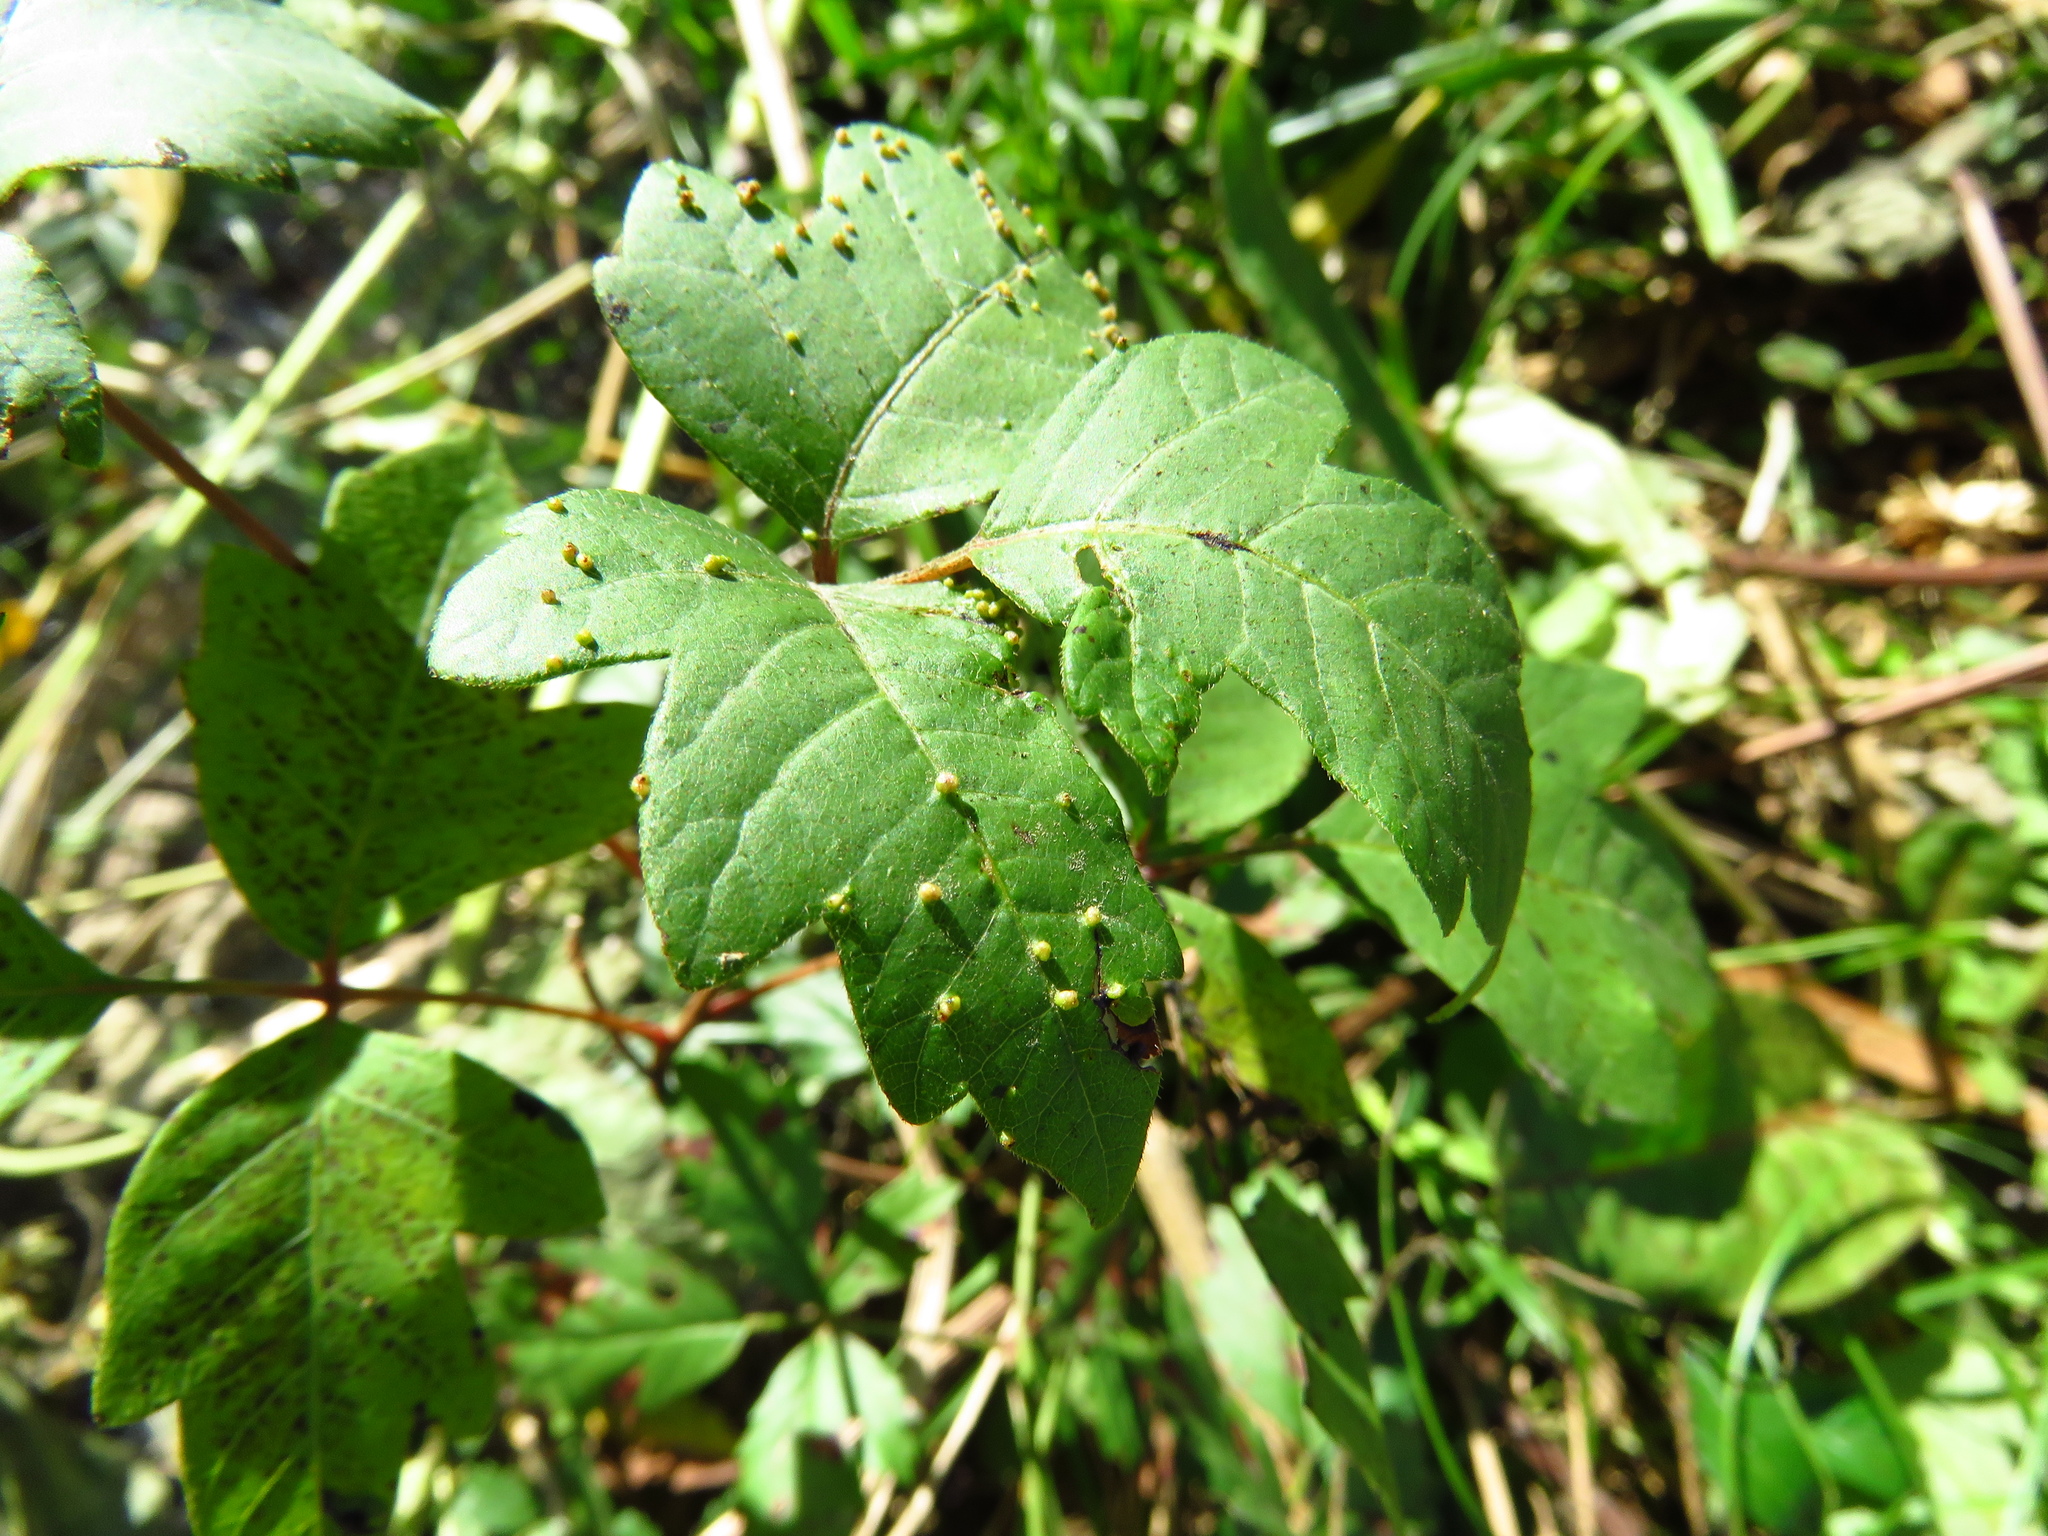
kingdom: Plantae
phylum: Tracheophyta
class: Magnoliopsida
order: Sapindales
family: Anacardiaceae
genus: Toxicodendron
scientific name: Toxicodendron radicans
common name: Poison ivy
